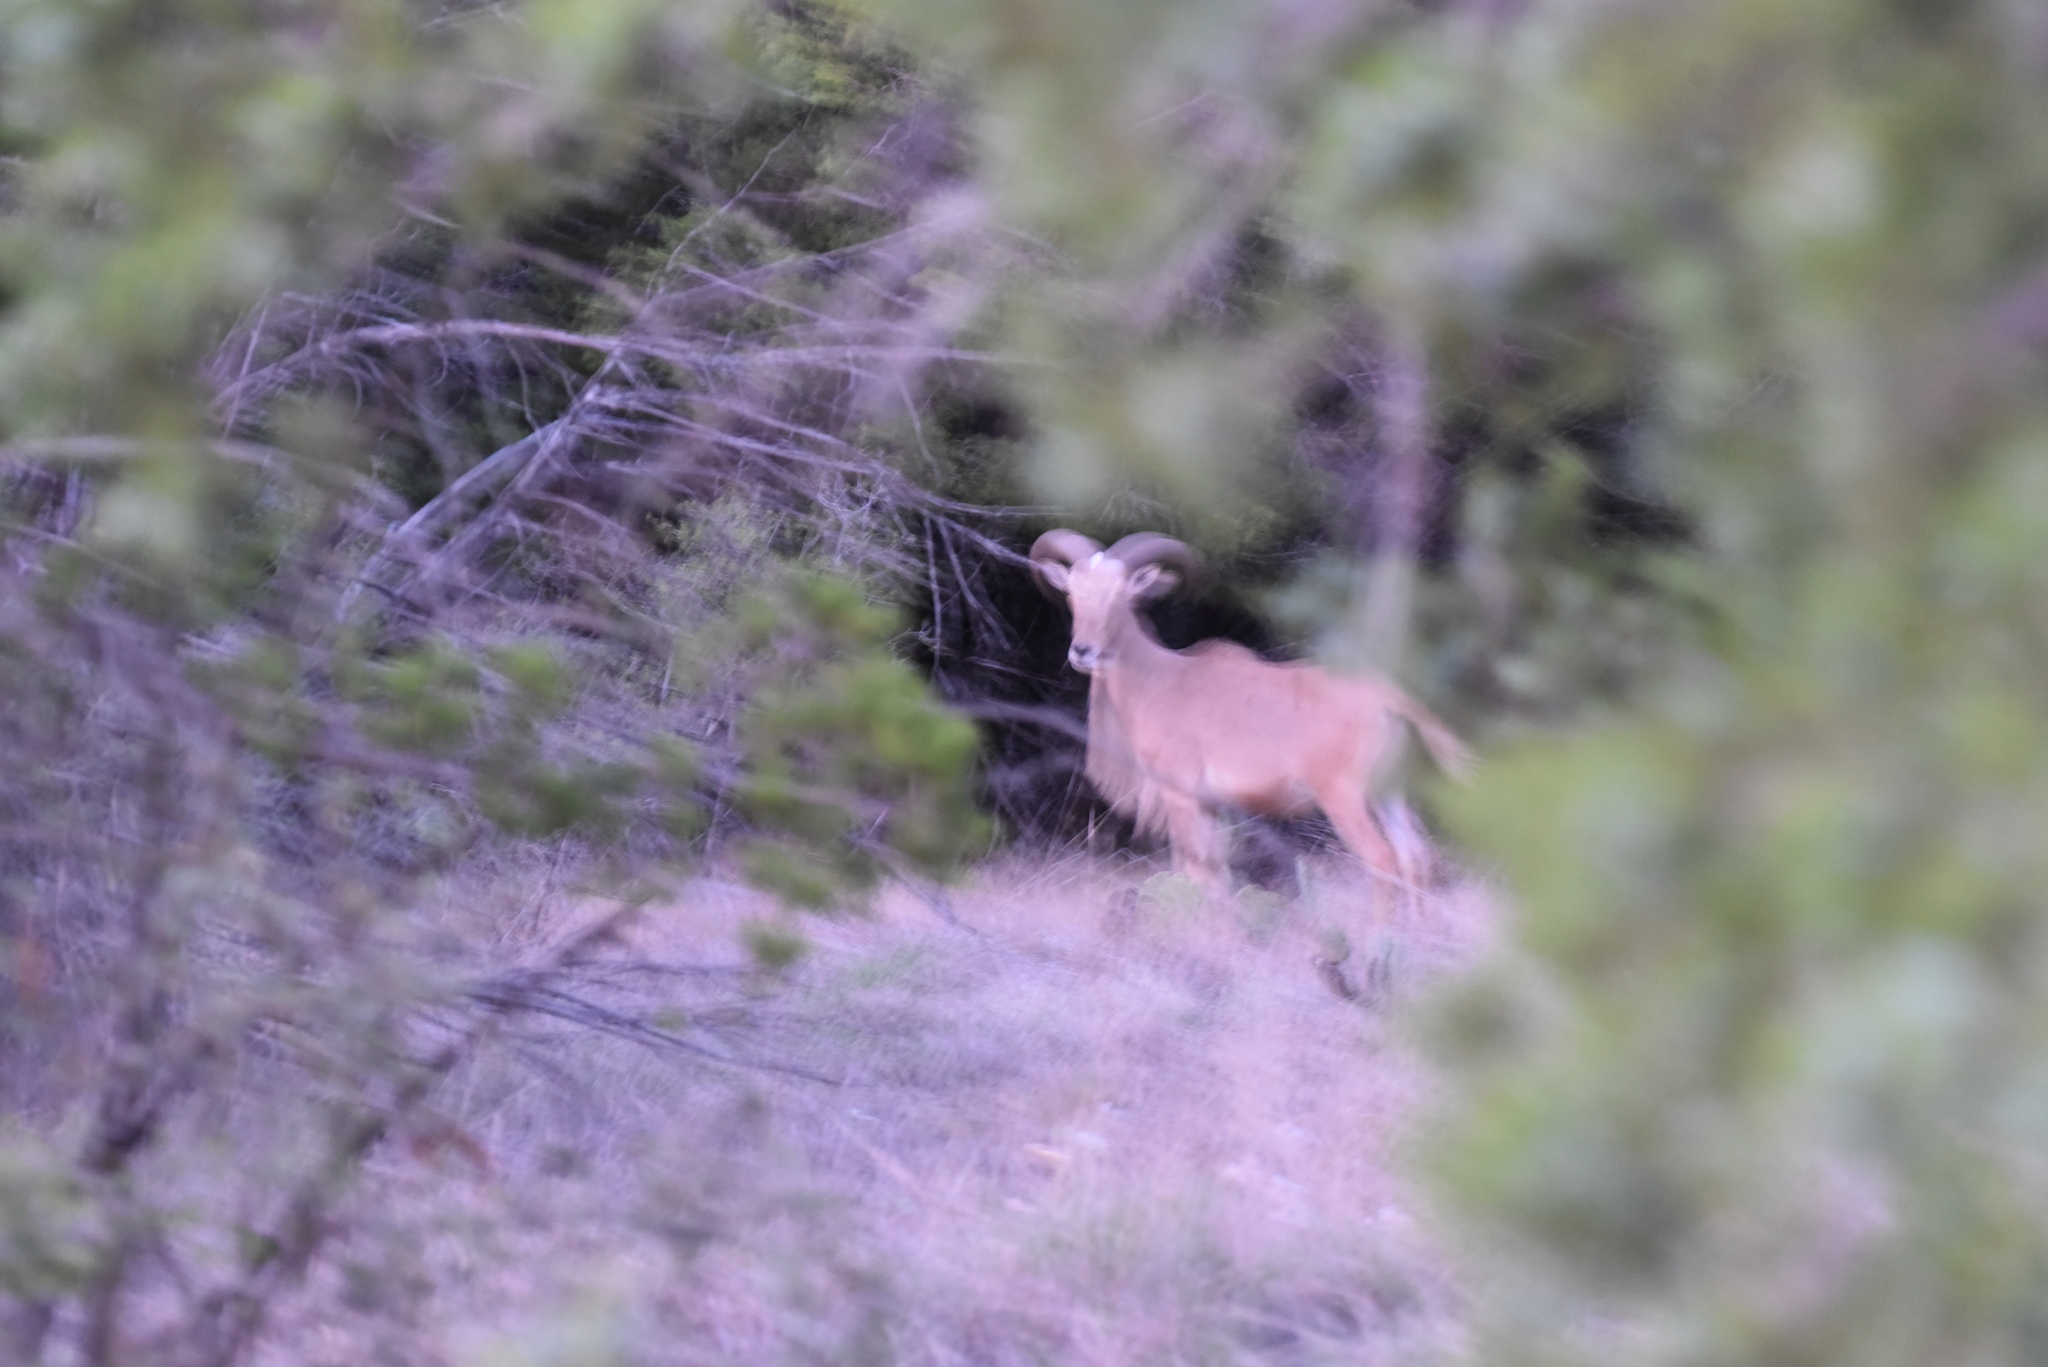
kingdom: Animalia
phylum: Chordata
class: Mammalia
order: Artiodactyla
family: Bovidae
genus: Ammotragus
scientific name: Ammotragus lervia
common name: Barbary sheep
